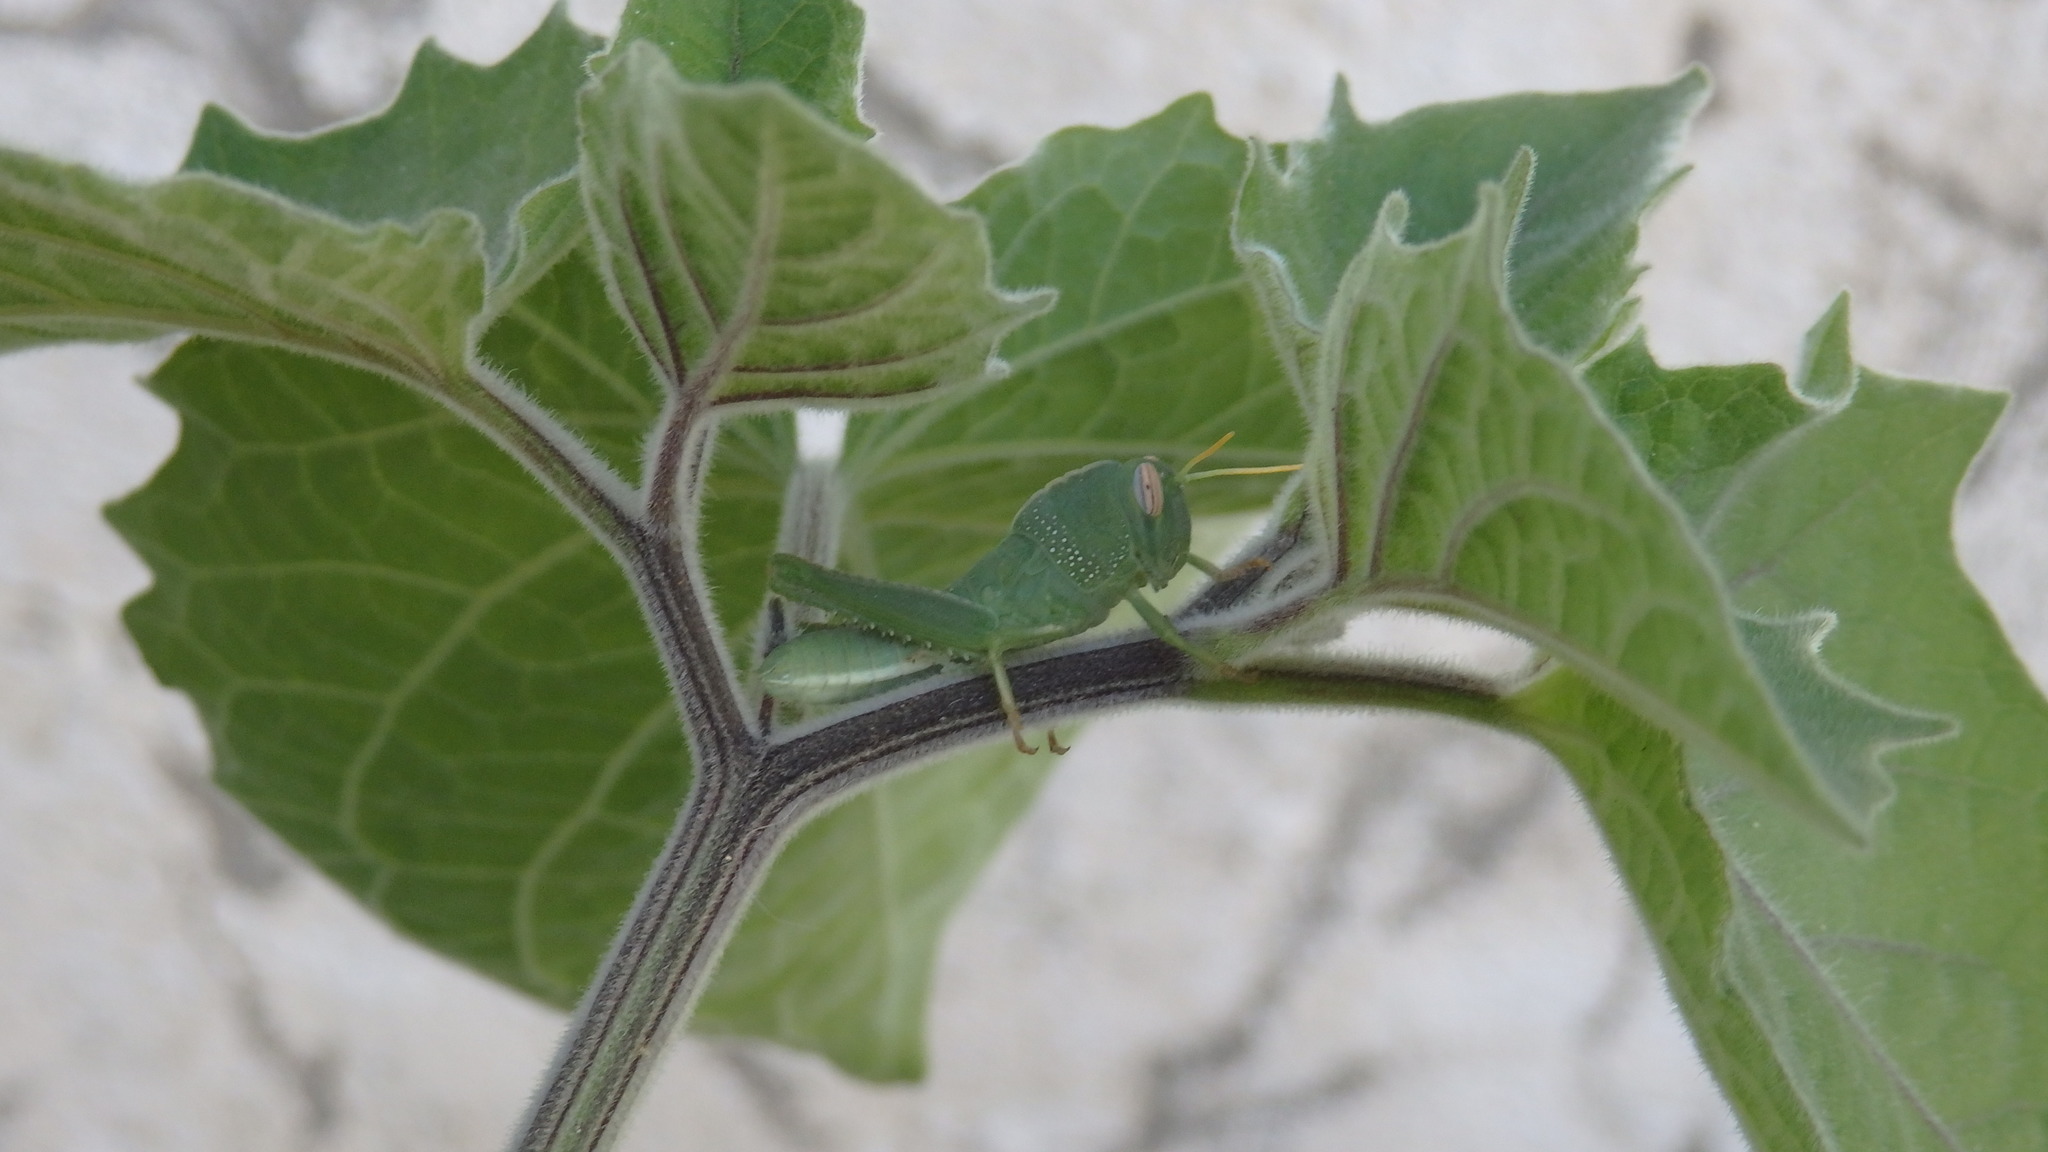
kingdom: Animalia
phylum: Arthropoda
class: Insecta
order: Orthoptera
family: Acrididae
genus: Anacridium
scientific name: Anacridium aegyptium
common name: Egyptian grasshopper
